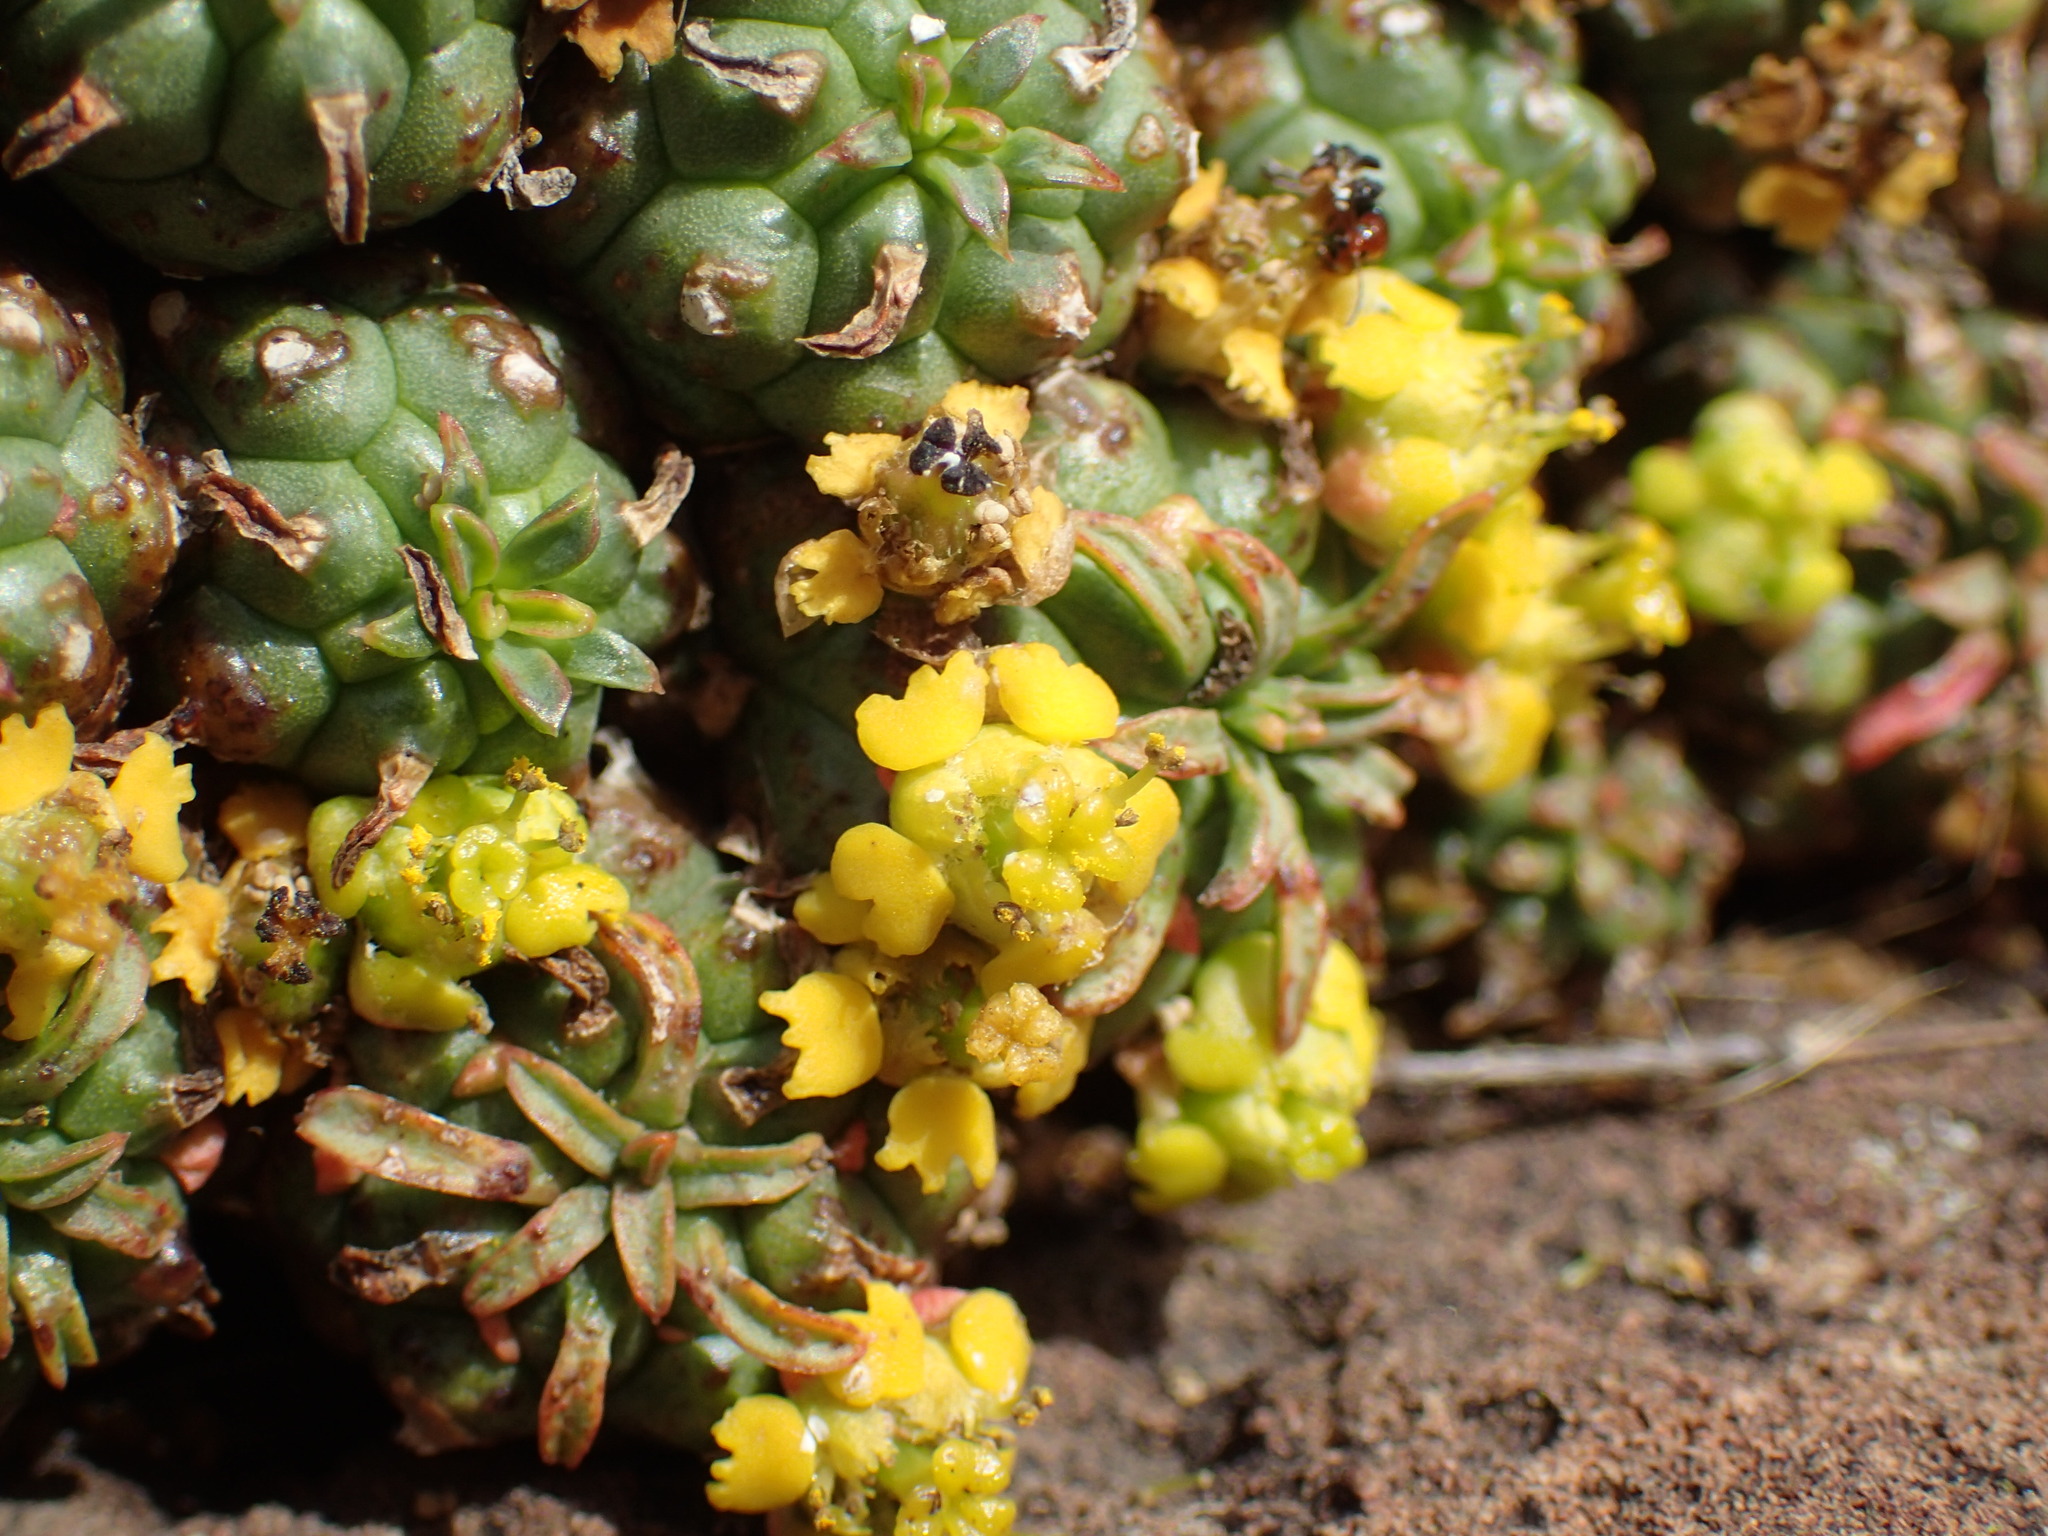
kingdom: Plantae
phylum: Tracheophyta
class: Magnoliopsida
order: Malpighiales
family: Euphorbiaceae
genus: Euphorbia
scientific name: Euphorbia clavarioides
